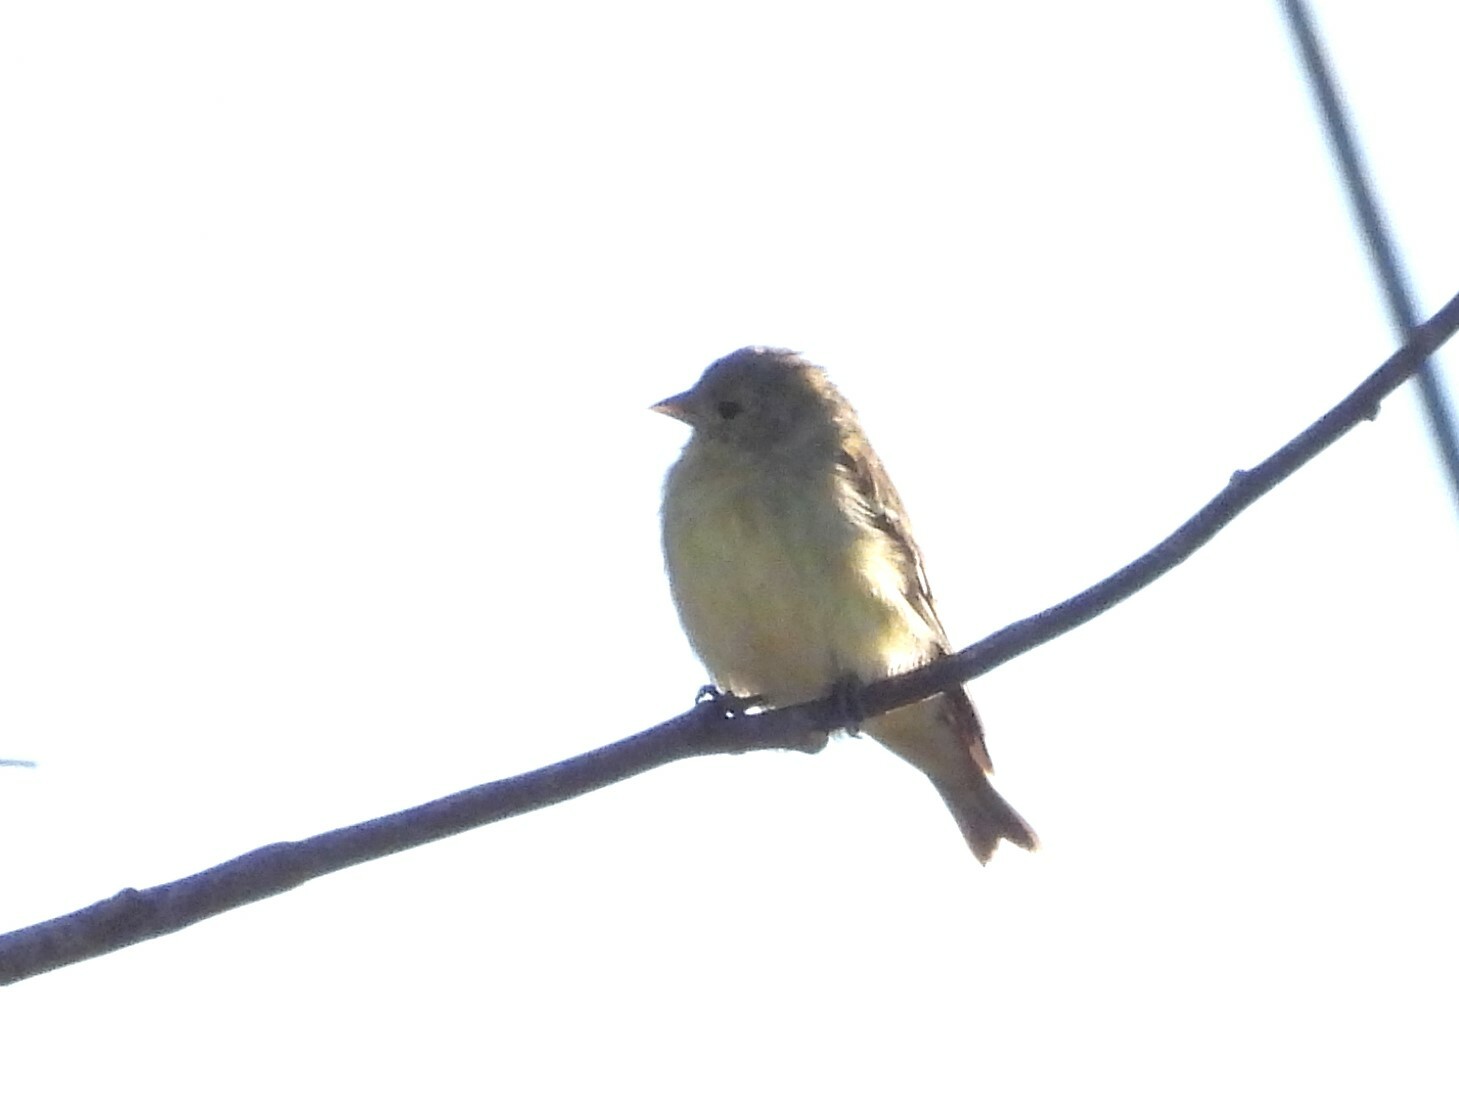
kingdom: Animalia
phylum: Chordata
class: Aves
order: Passeriformes
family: Fringillidae
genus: Spinus
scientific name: Spinus psaltria
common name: Lesser goldfinch
